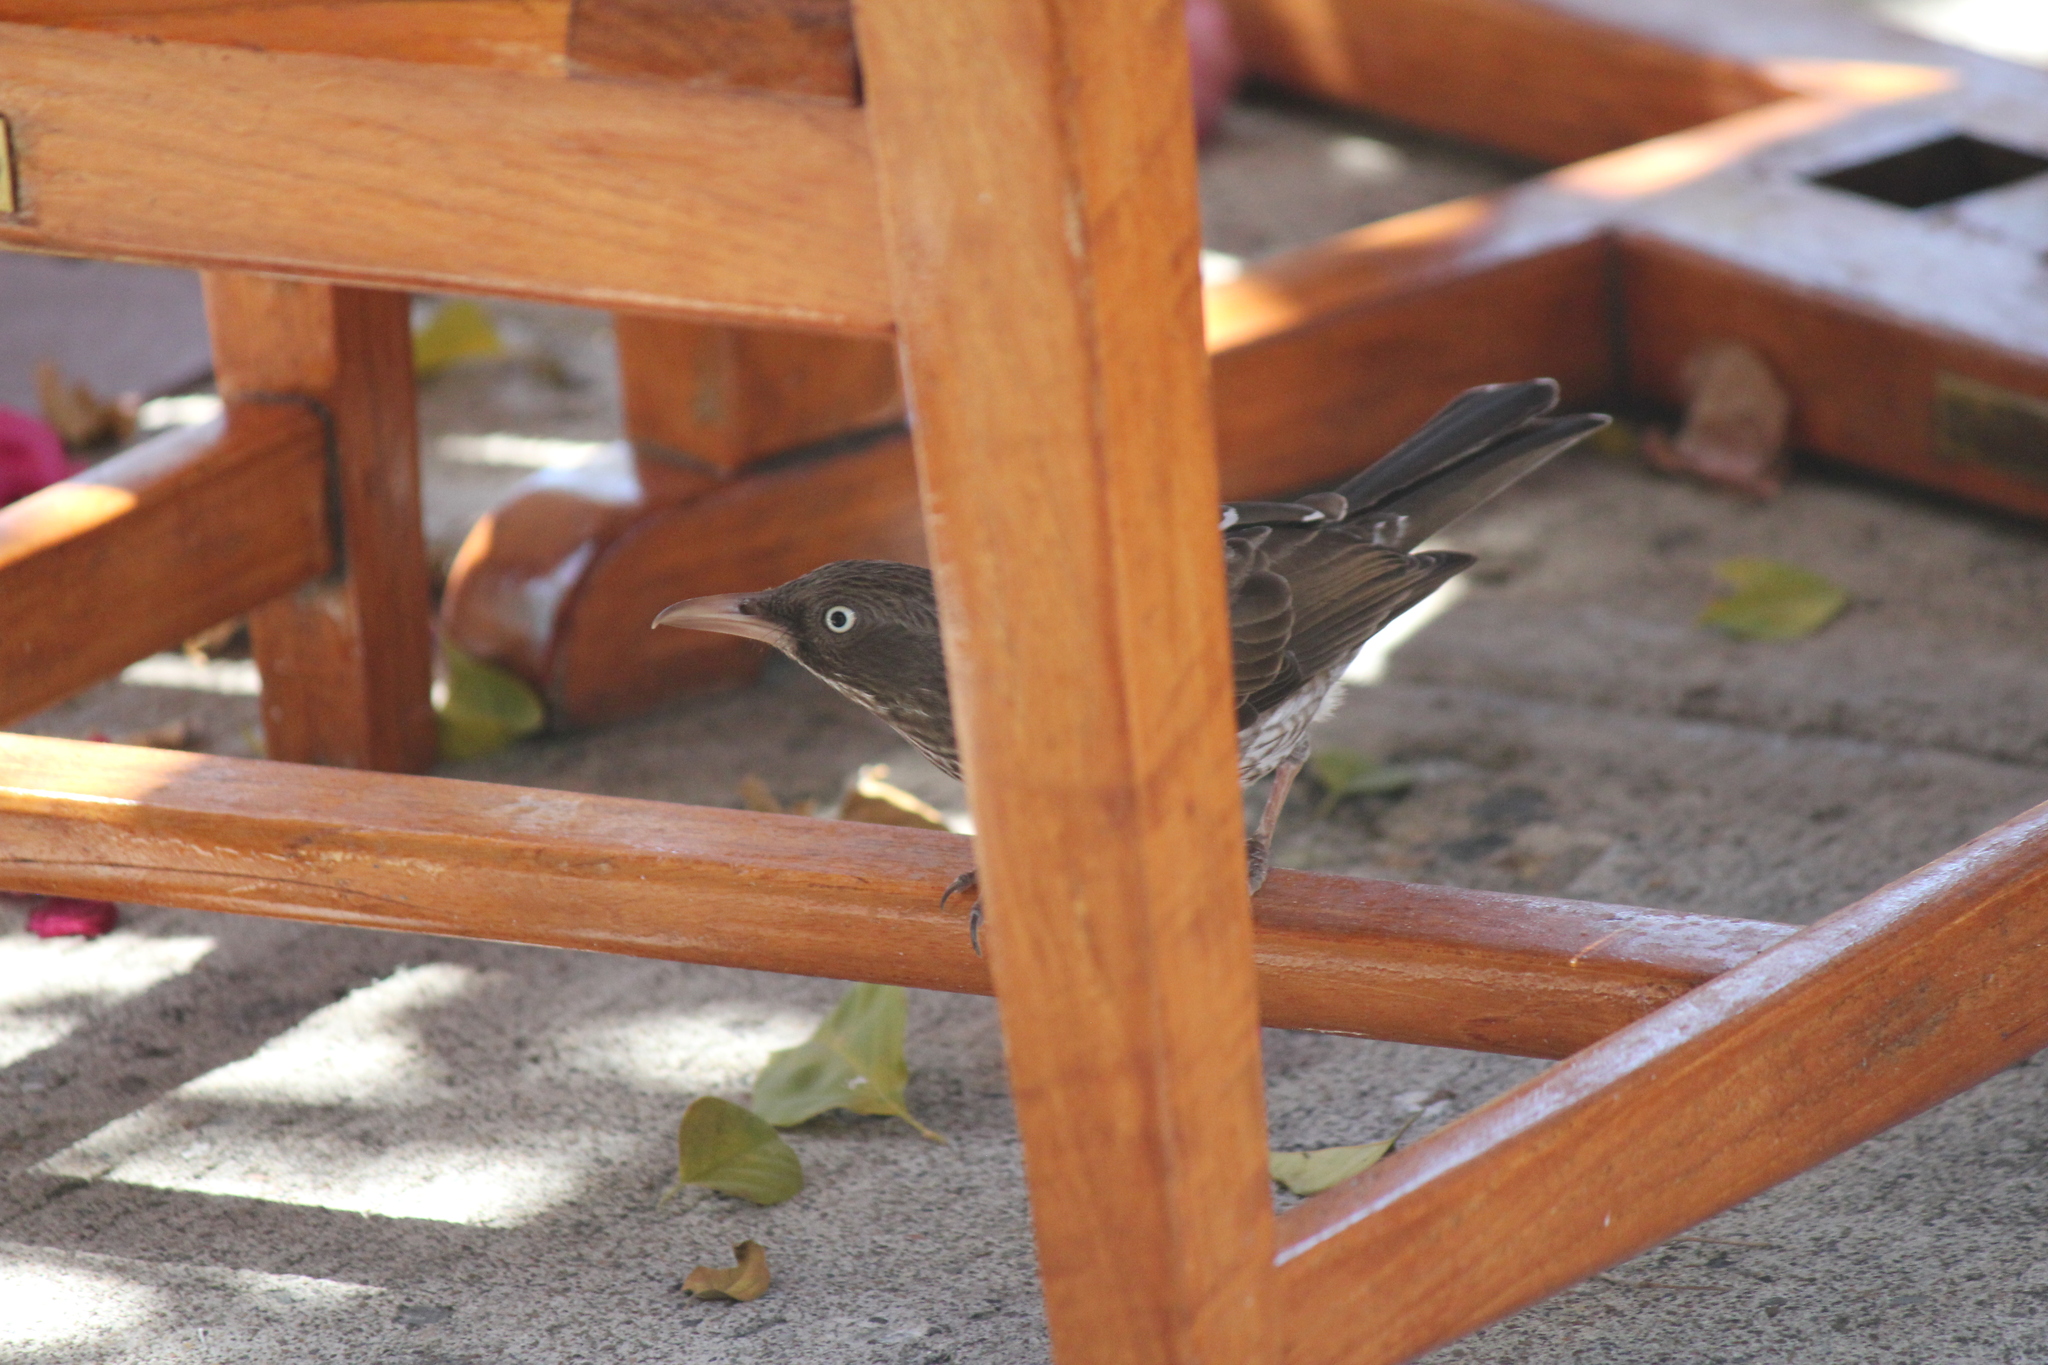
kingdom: Animalia
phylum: Chordata
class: Aves
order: Passeriformes
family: Mimidae
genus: Margarops
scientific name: Margarops fuscatus
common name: Pearly-eyed thrasher
